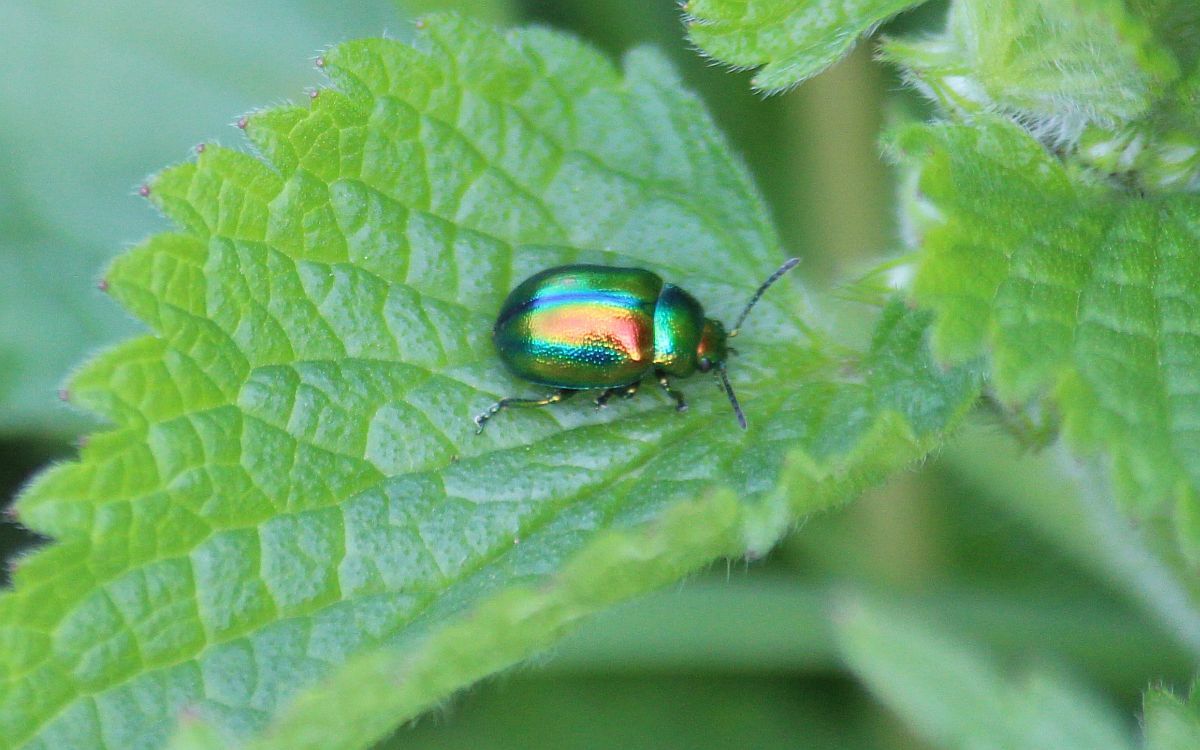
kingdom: Animalia
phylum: Arthropoda
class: Insecta
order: Coleoptera
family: Chrysomelidae
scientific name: Chrysomelidae
